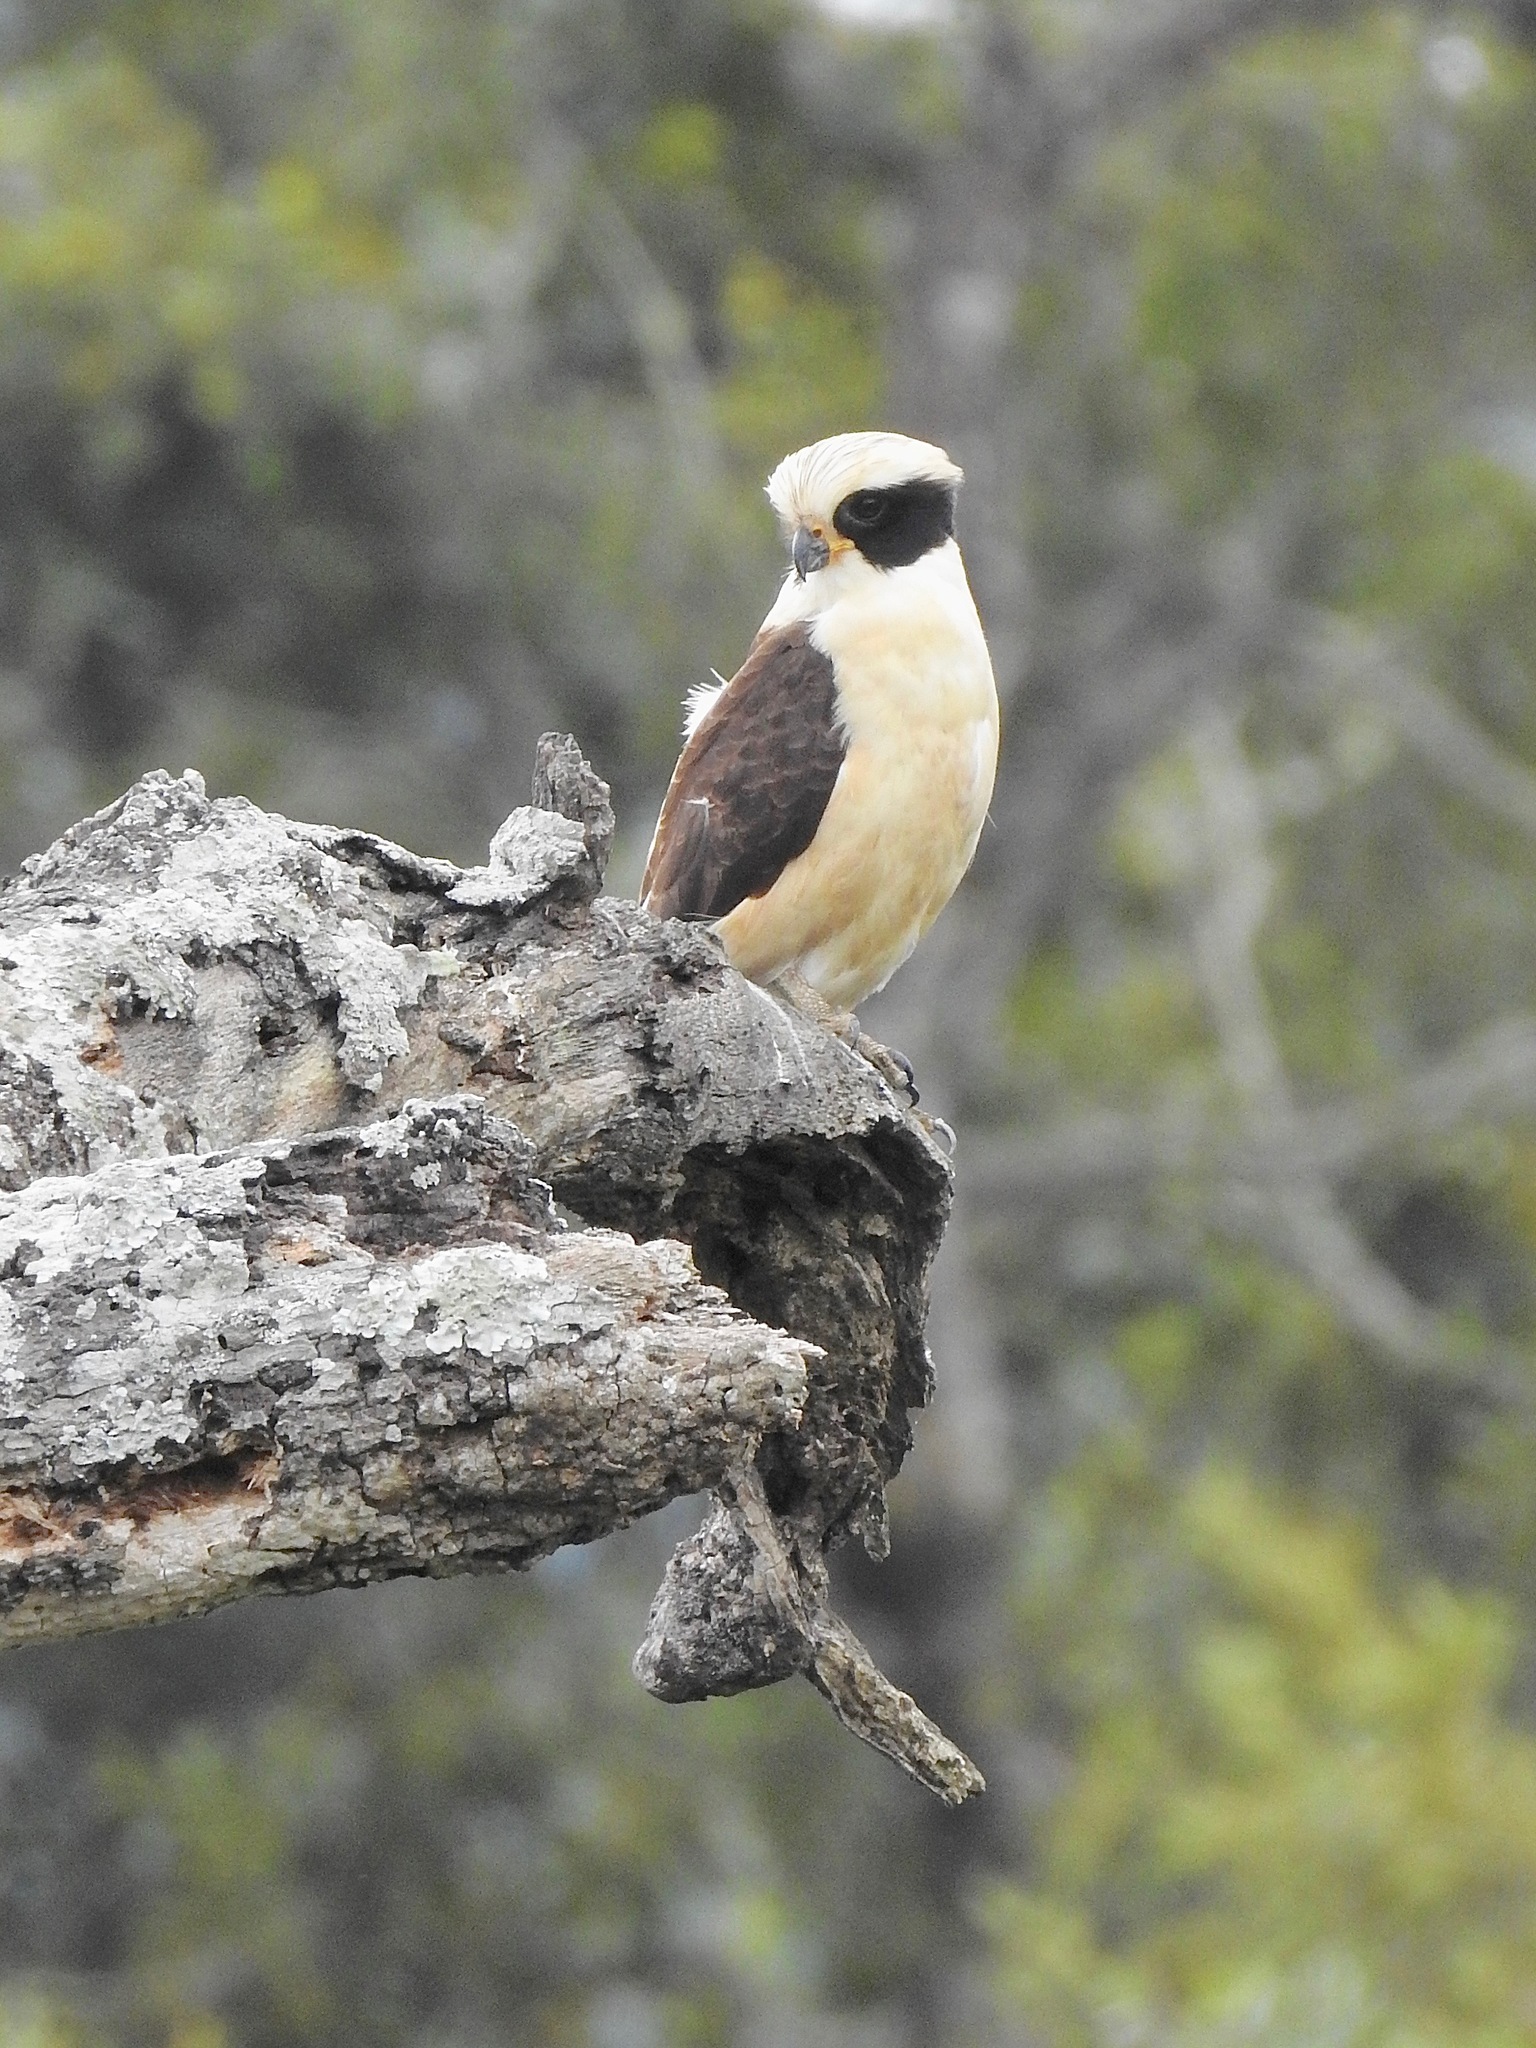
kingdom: Animalia
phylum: Chordata
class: Aves
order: Falconiformes
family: Falconidae
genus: Herpetotheres
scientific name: Herpetotheres cachinnans
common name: Laughing falcon
